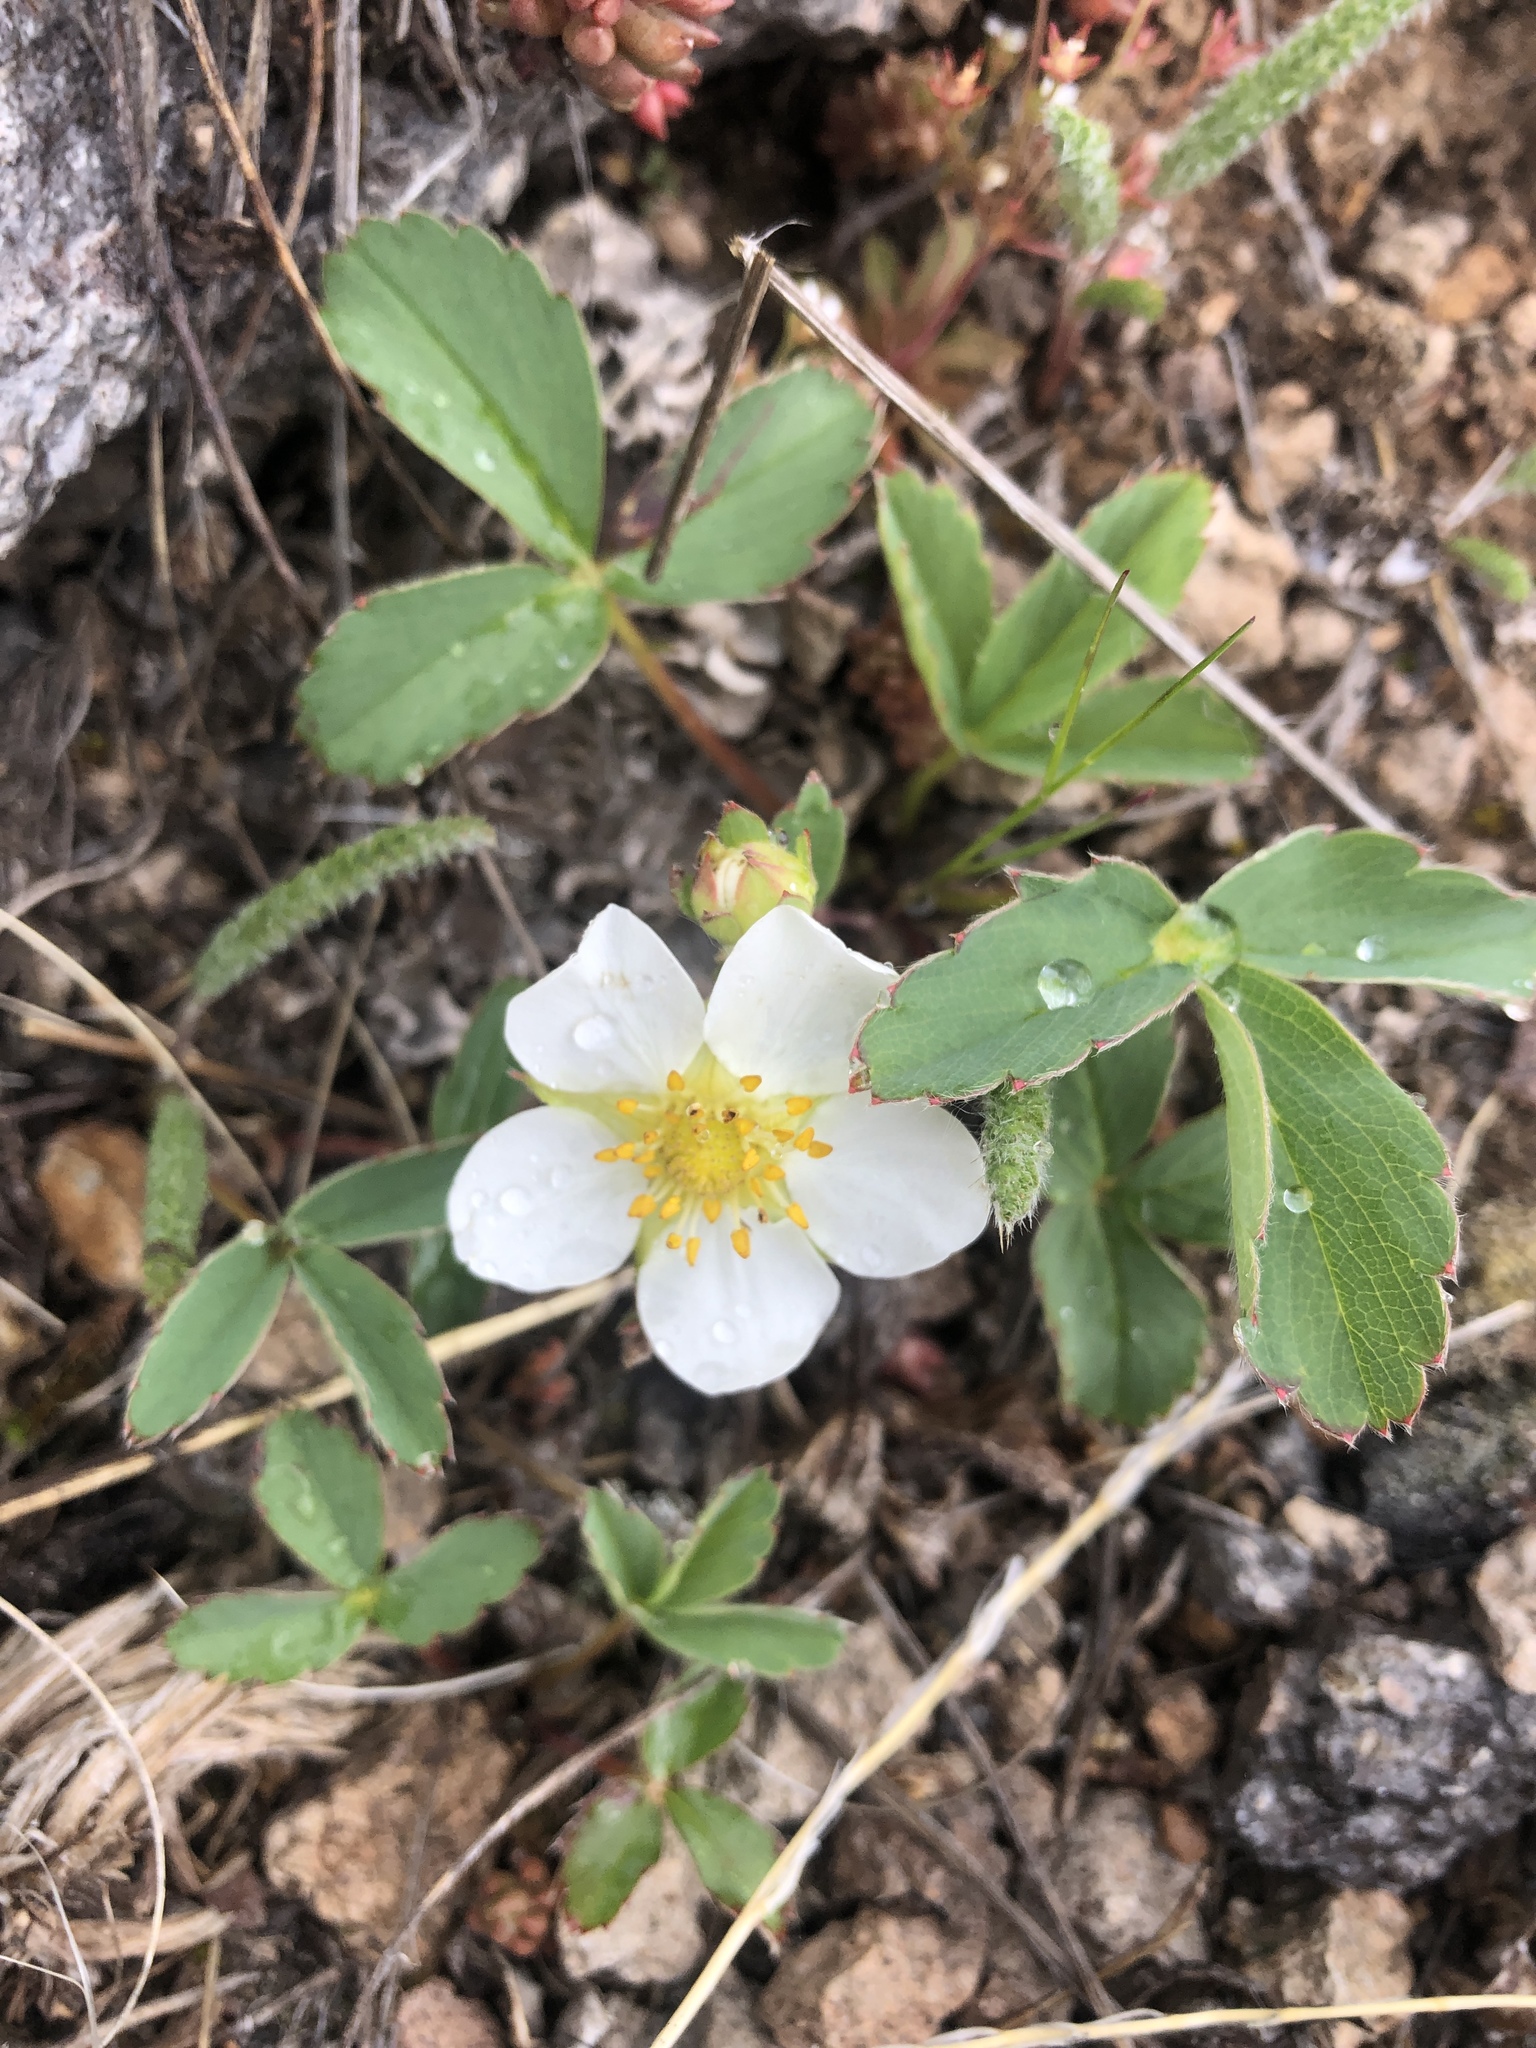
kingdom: Plantae
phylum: Tracheophyta
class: Magnoliopsida
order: Rosales
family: Rosaceae
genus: Fragaria
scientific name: Fragaria virginiana
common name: Thickleaved wild strawberry
